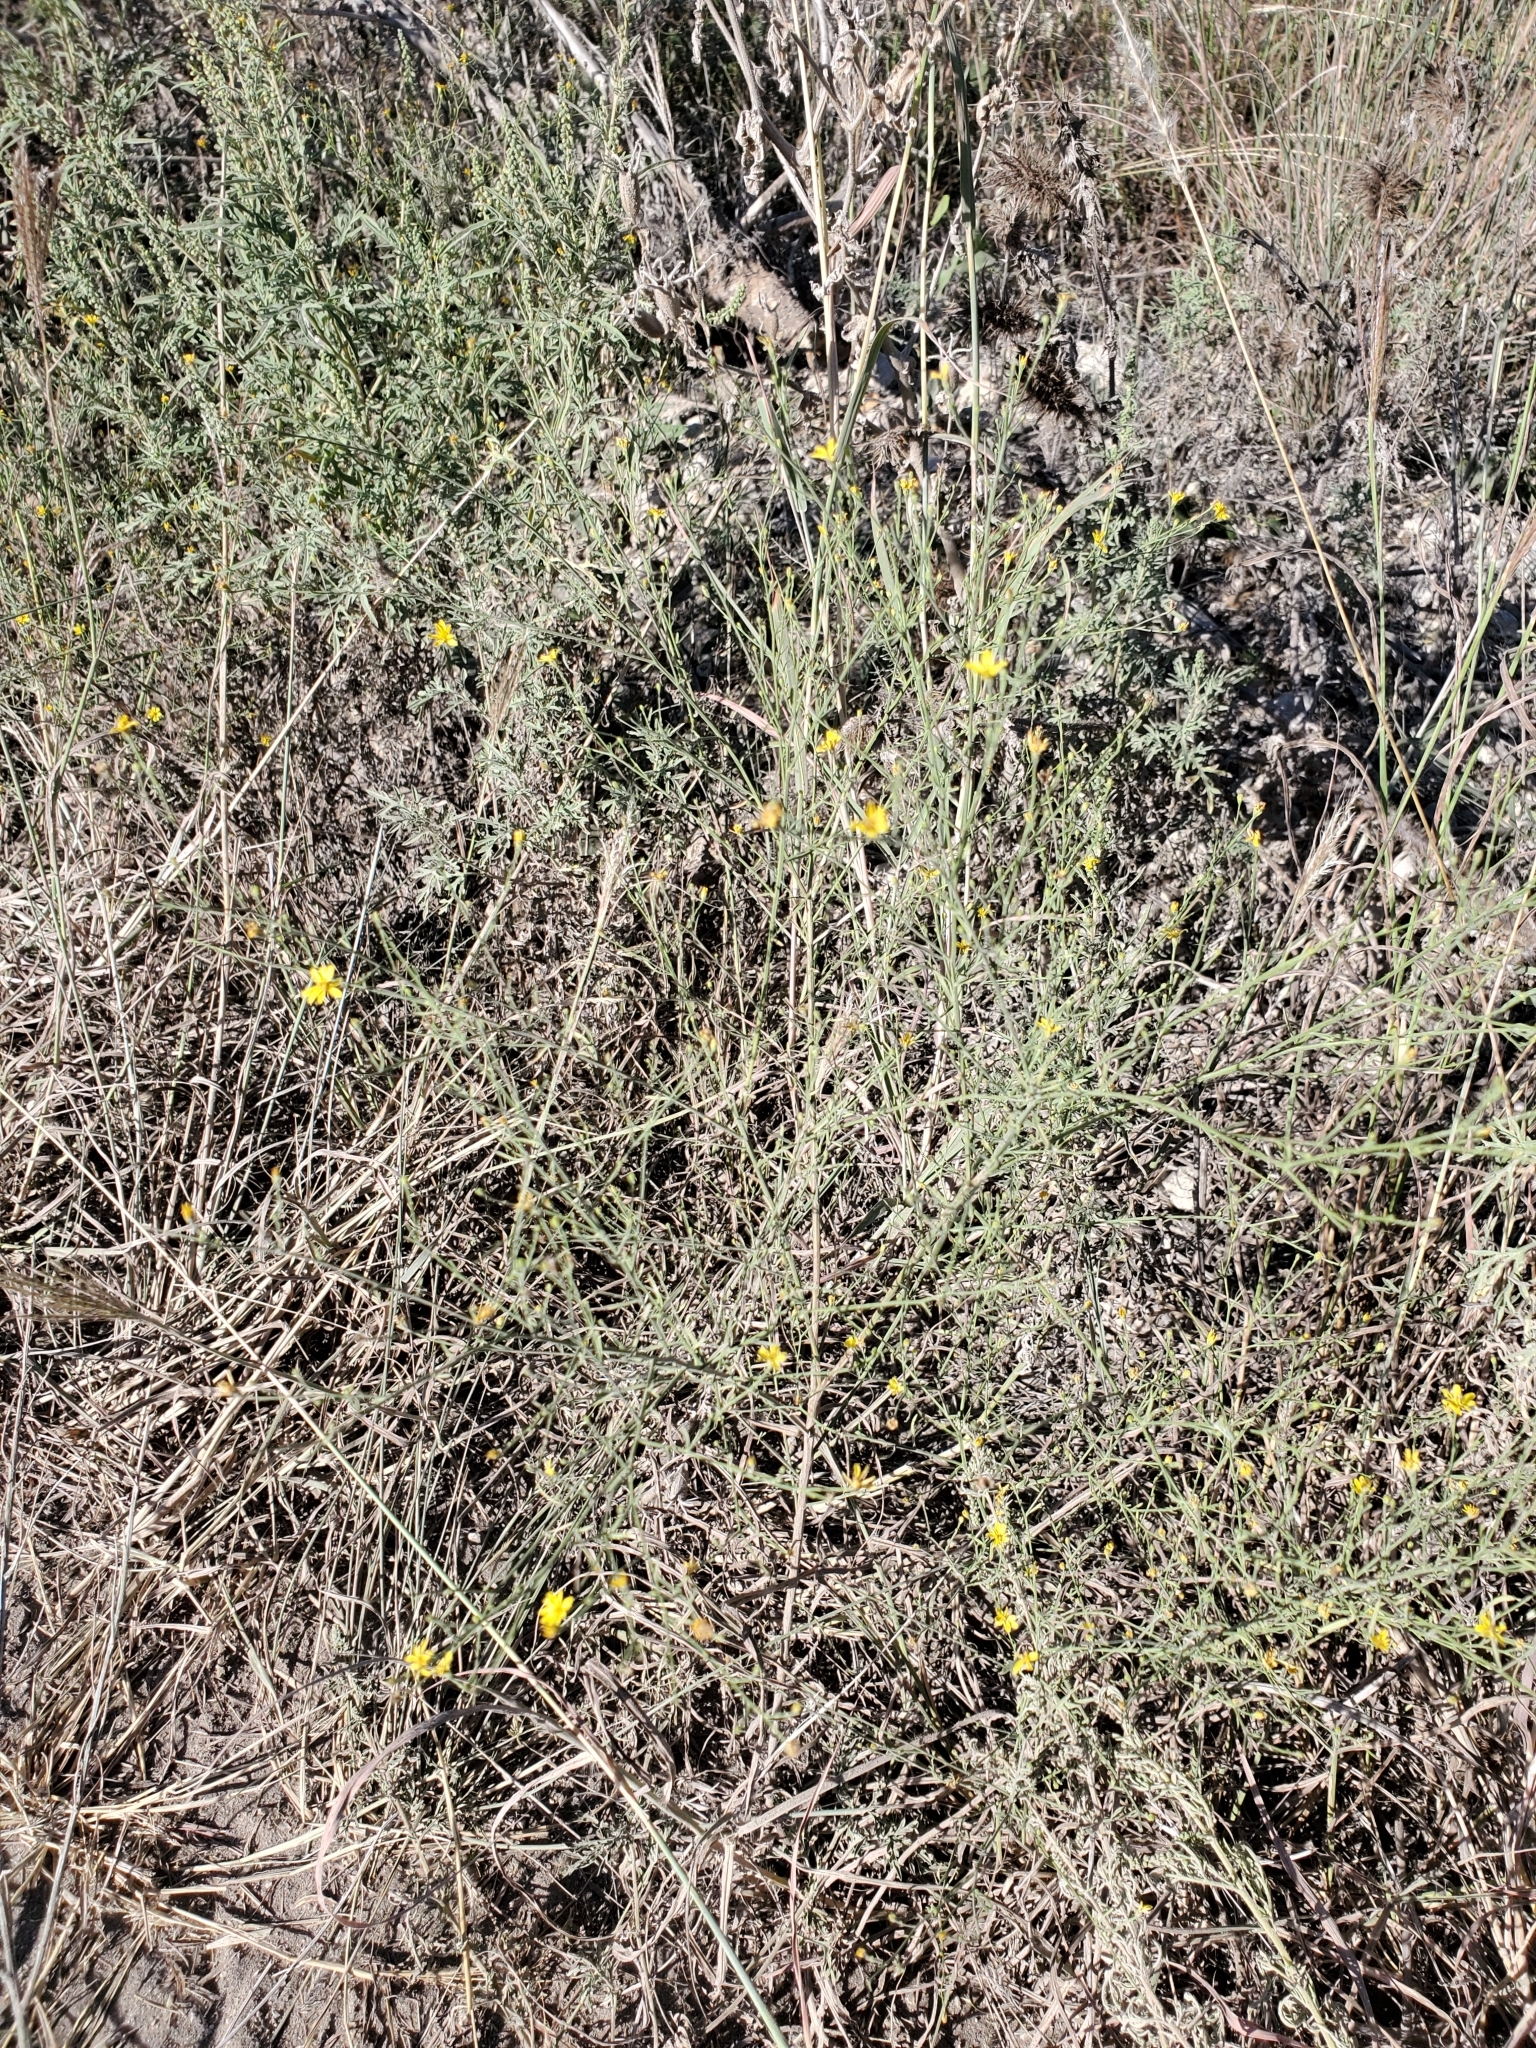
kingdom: Plantae
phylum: Tracheophyta
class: Magnoliopsida
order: Asterales
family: Asteraceae
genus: Gutierrezia
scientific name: Gutierrezia texana
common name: Texas snakeweed
